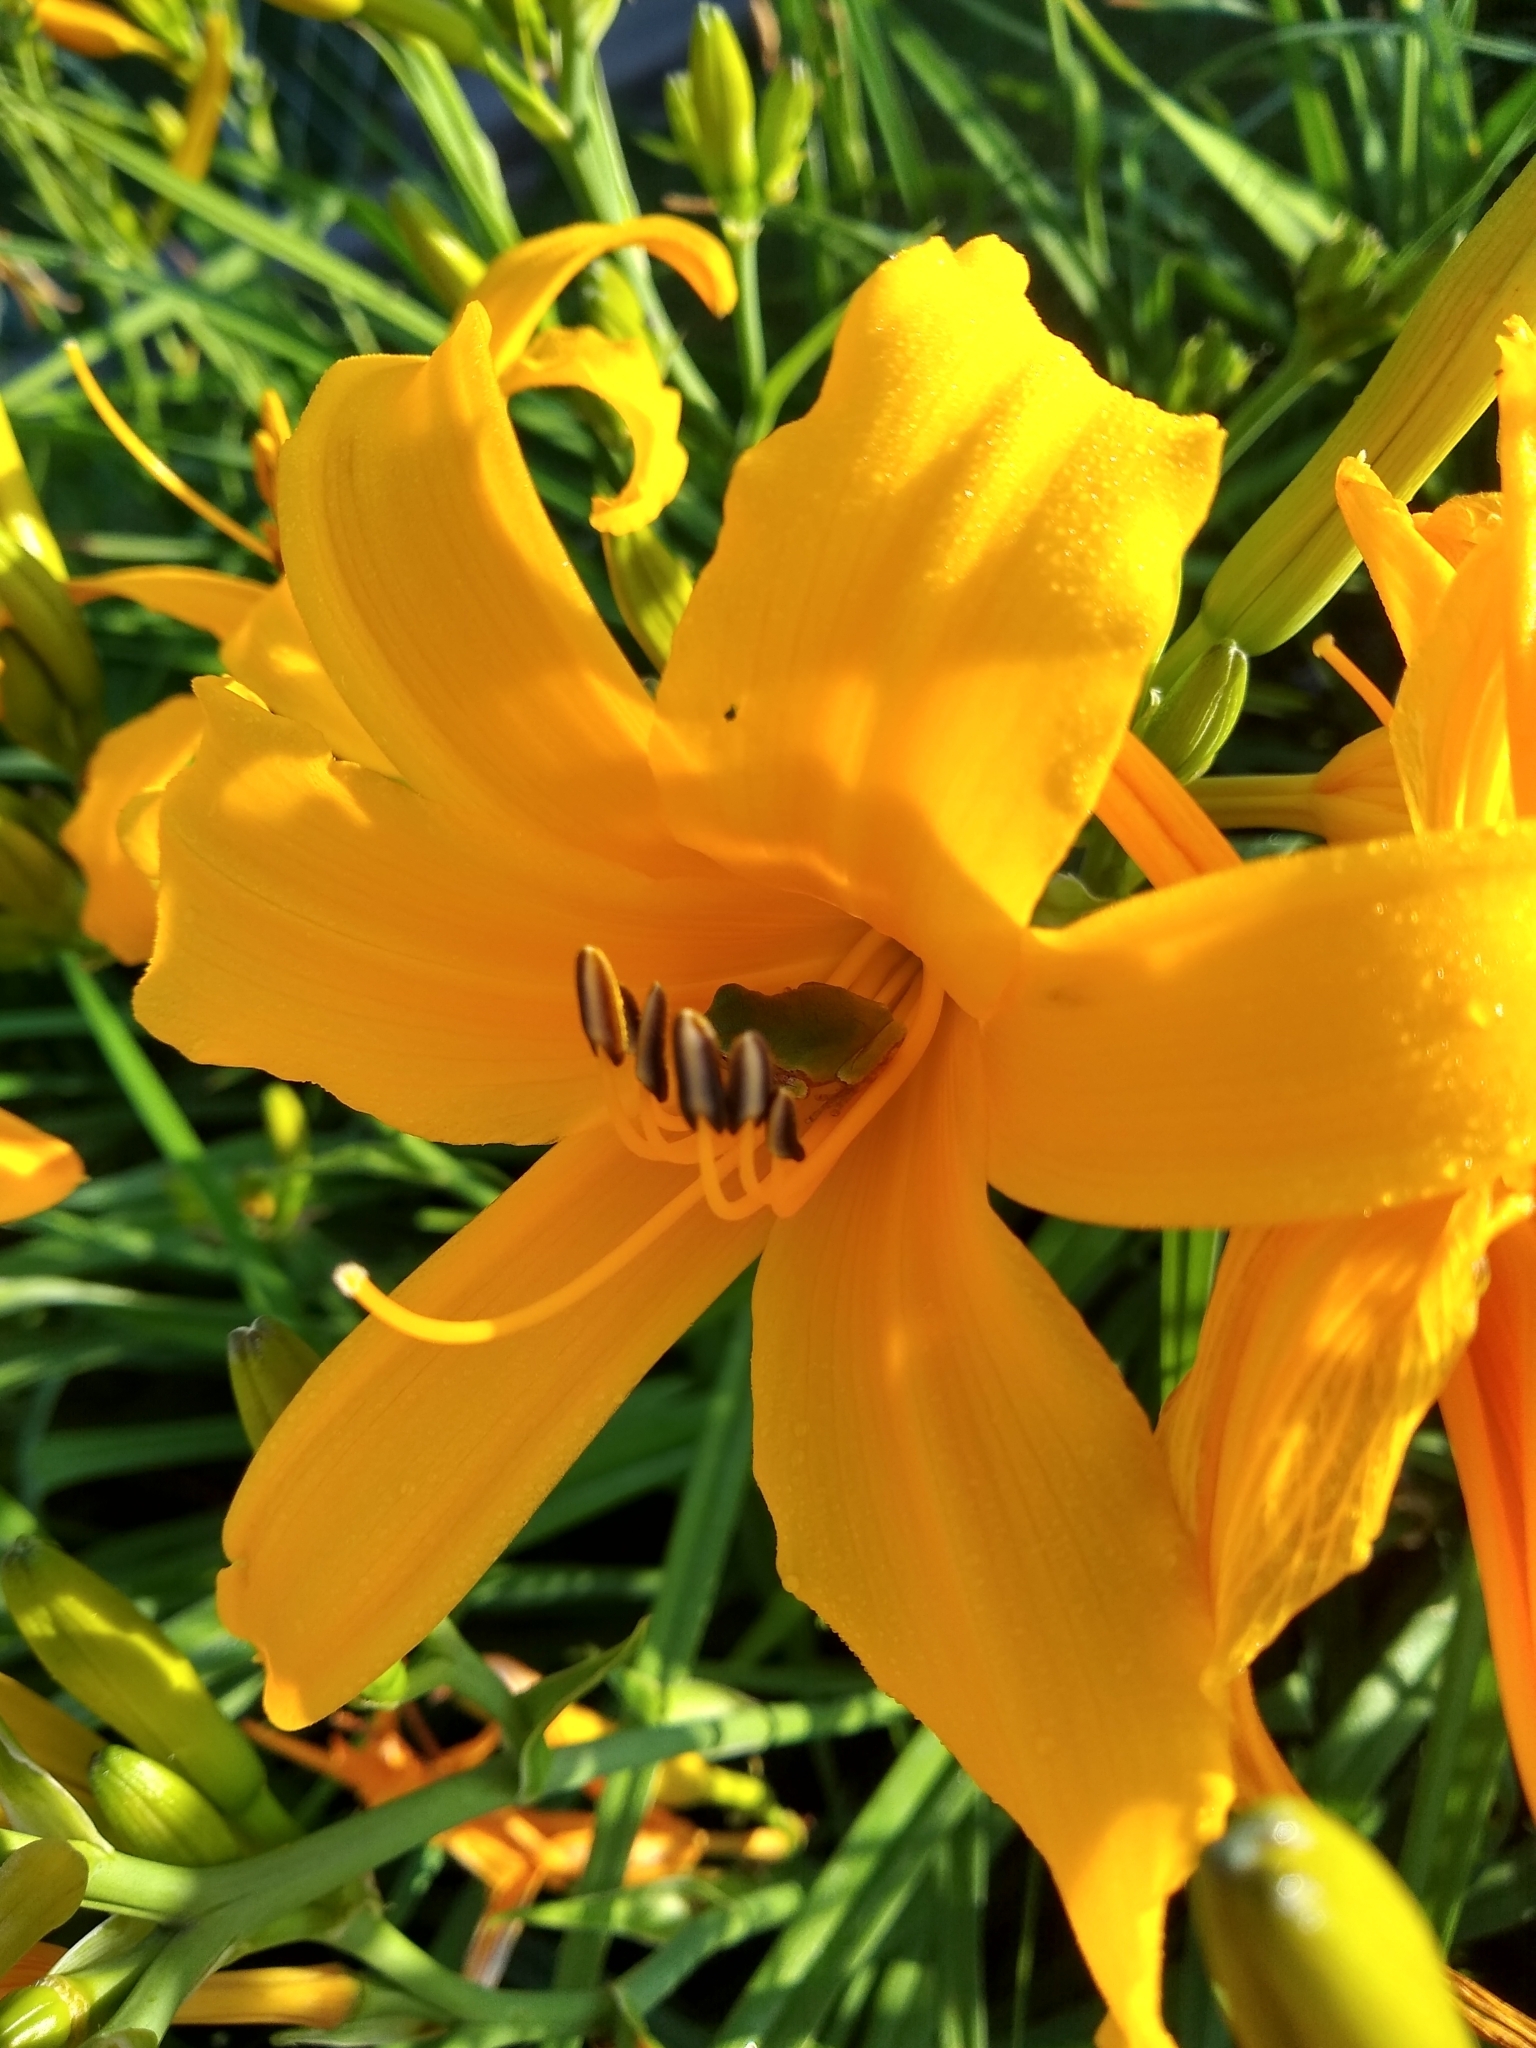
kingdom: Animalia
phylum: Chordata
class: Amphibia
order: Anura
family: Hylidae
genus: Hyla
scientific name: Hyla
